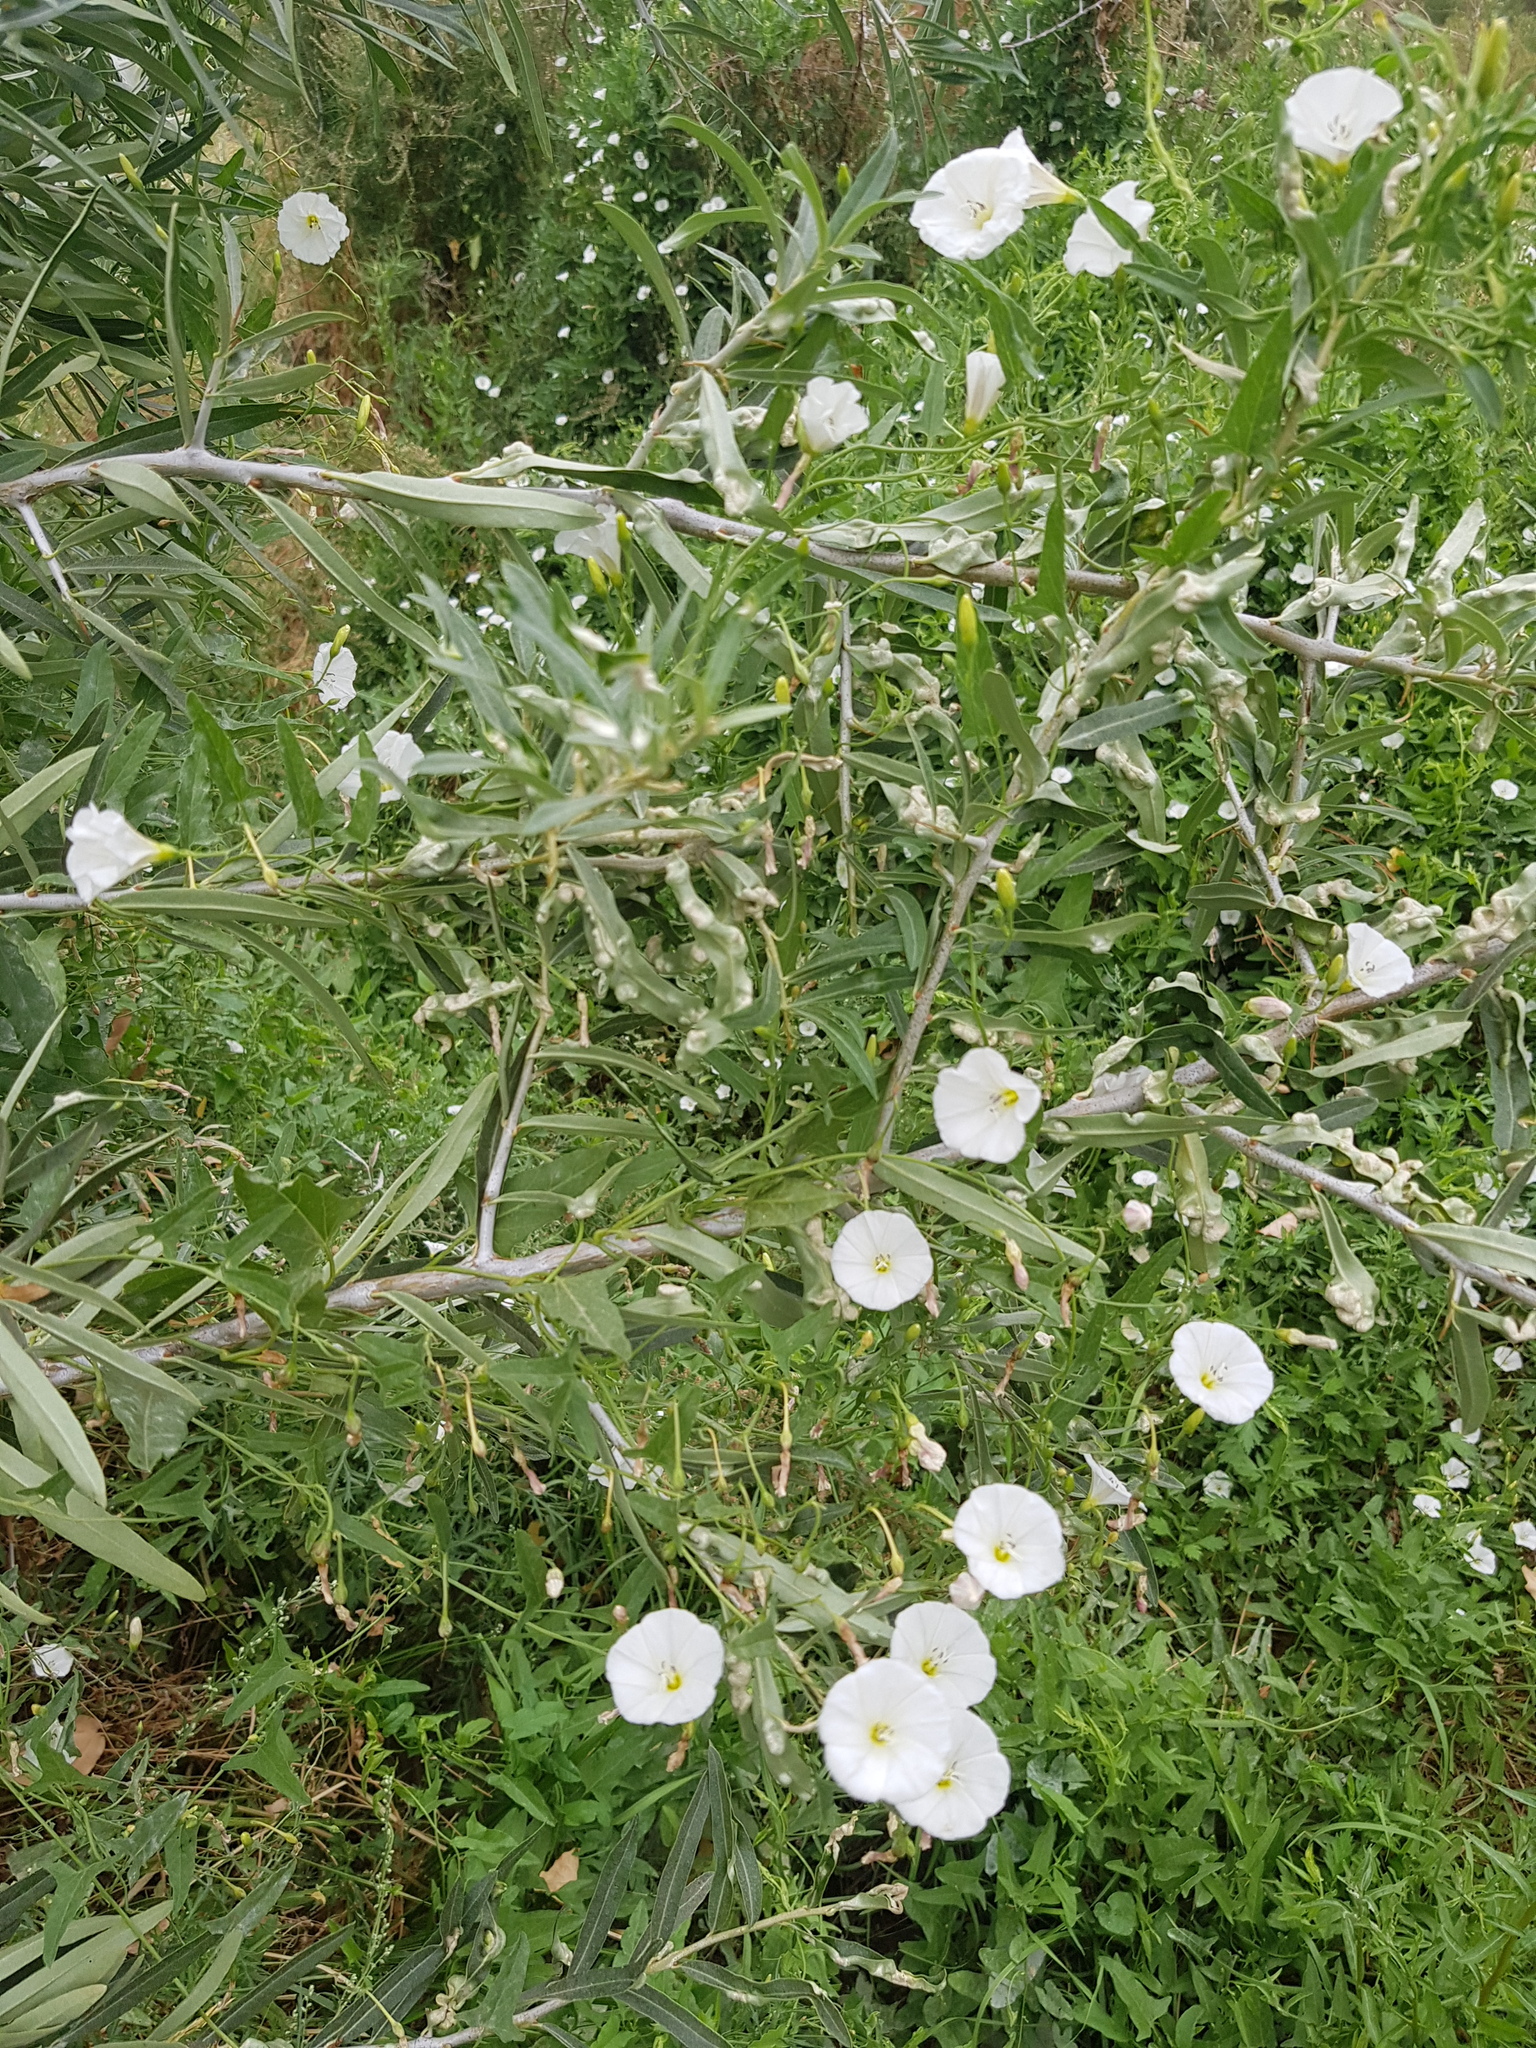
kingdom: Plantae
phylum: Tracheophyta
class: Magnoliopsida
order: Solanales
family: Convolvulaceae
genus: Convolvulus
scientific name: Convolvulus arvensis
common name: Field bindweed
